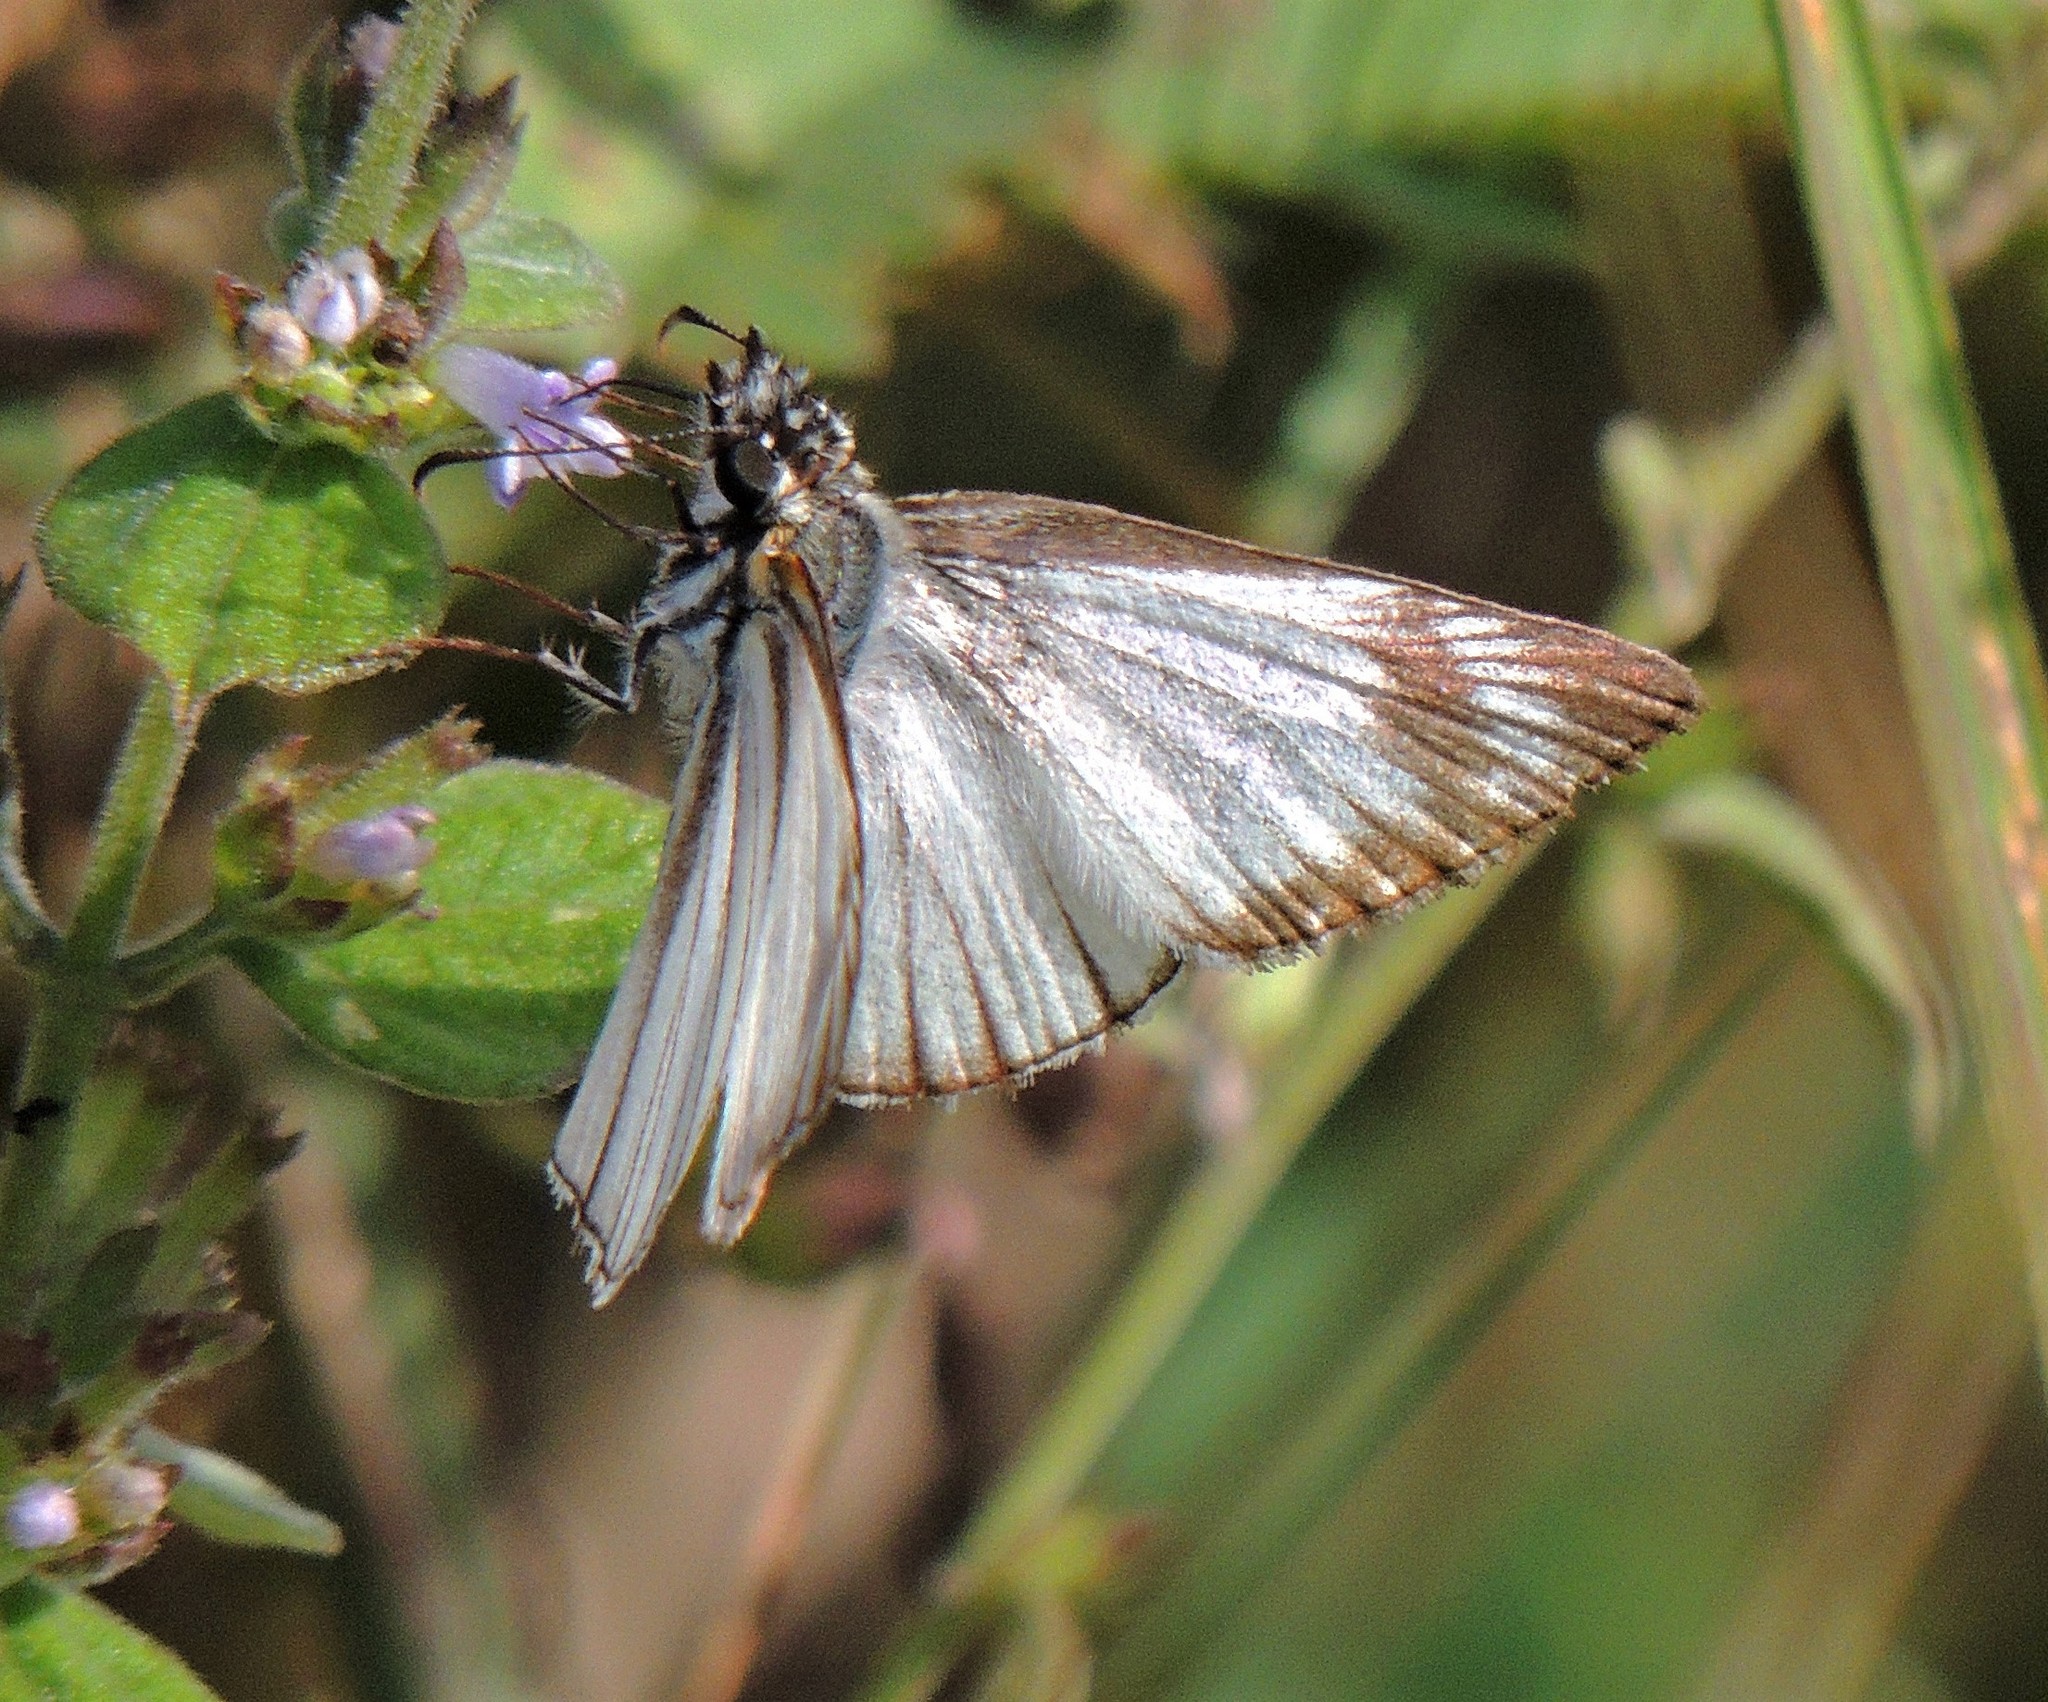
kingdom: Animalia
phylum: Arthropoda
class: Insecta
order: Lepidoptera
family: Hesperiidae
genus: Heliopetes
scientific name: Heliopetes arsalte
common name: Veined white-skipper
